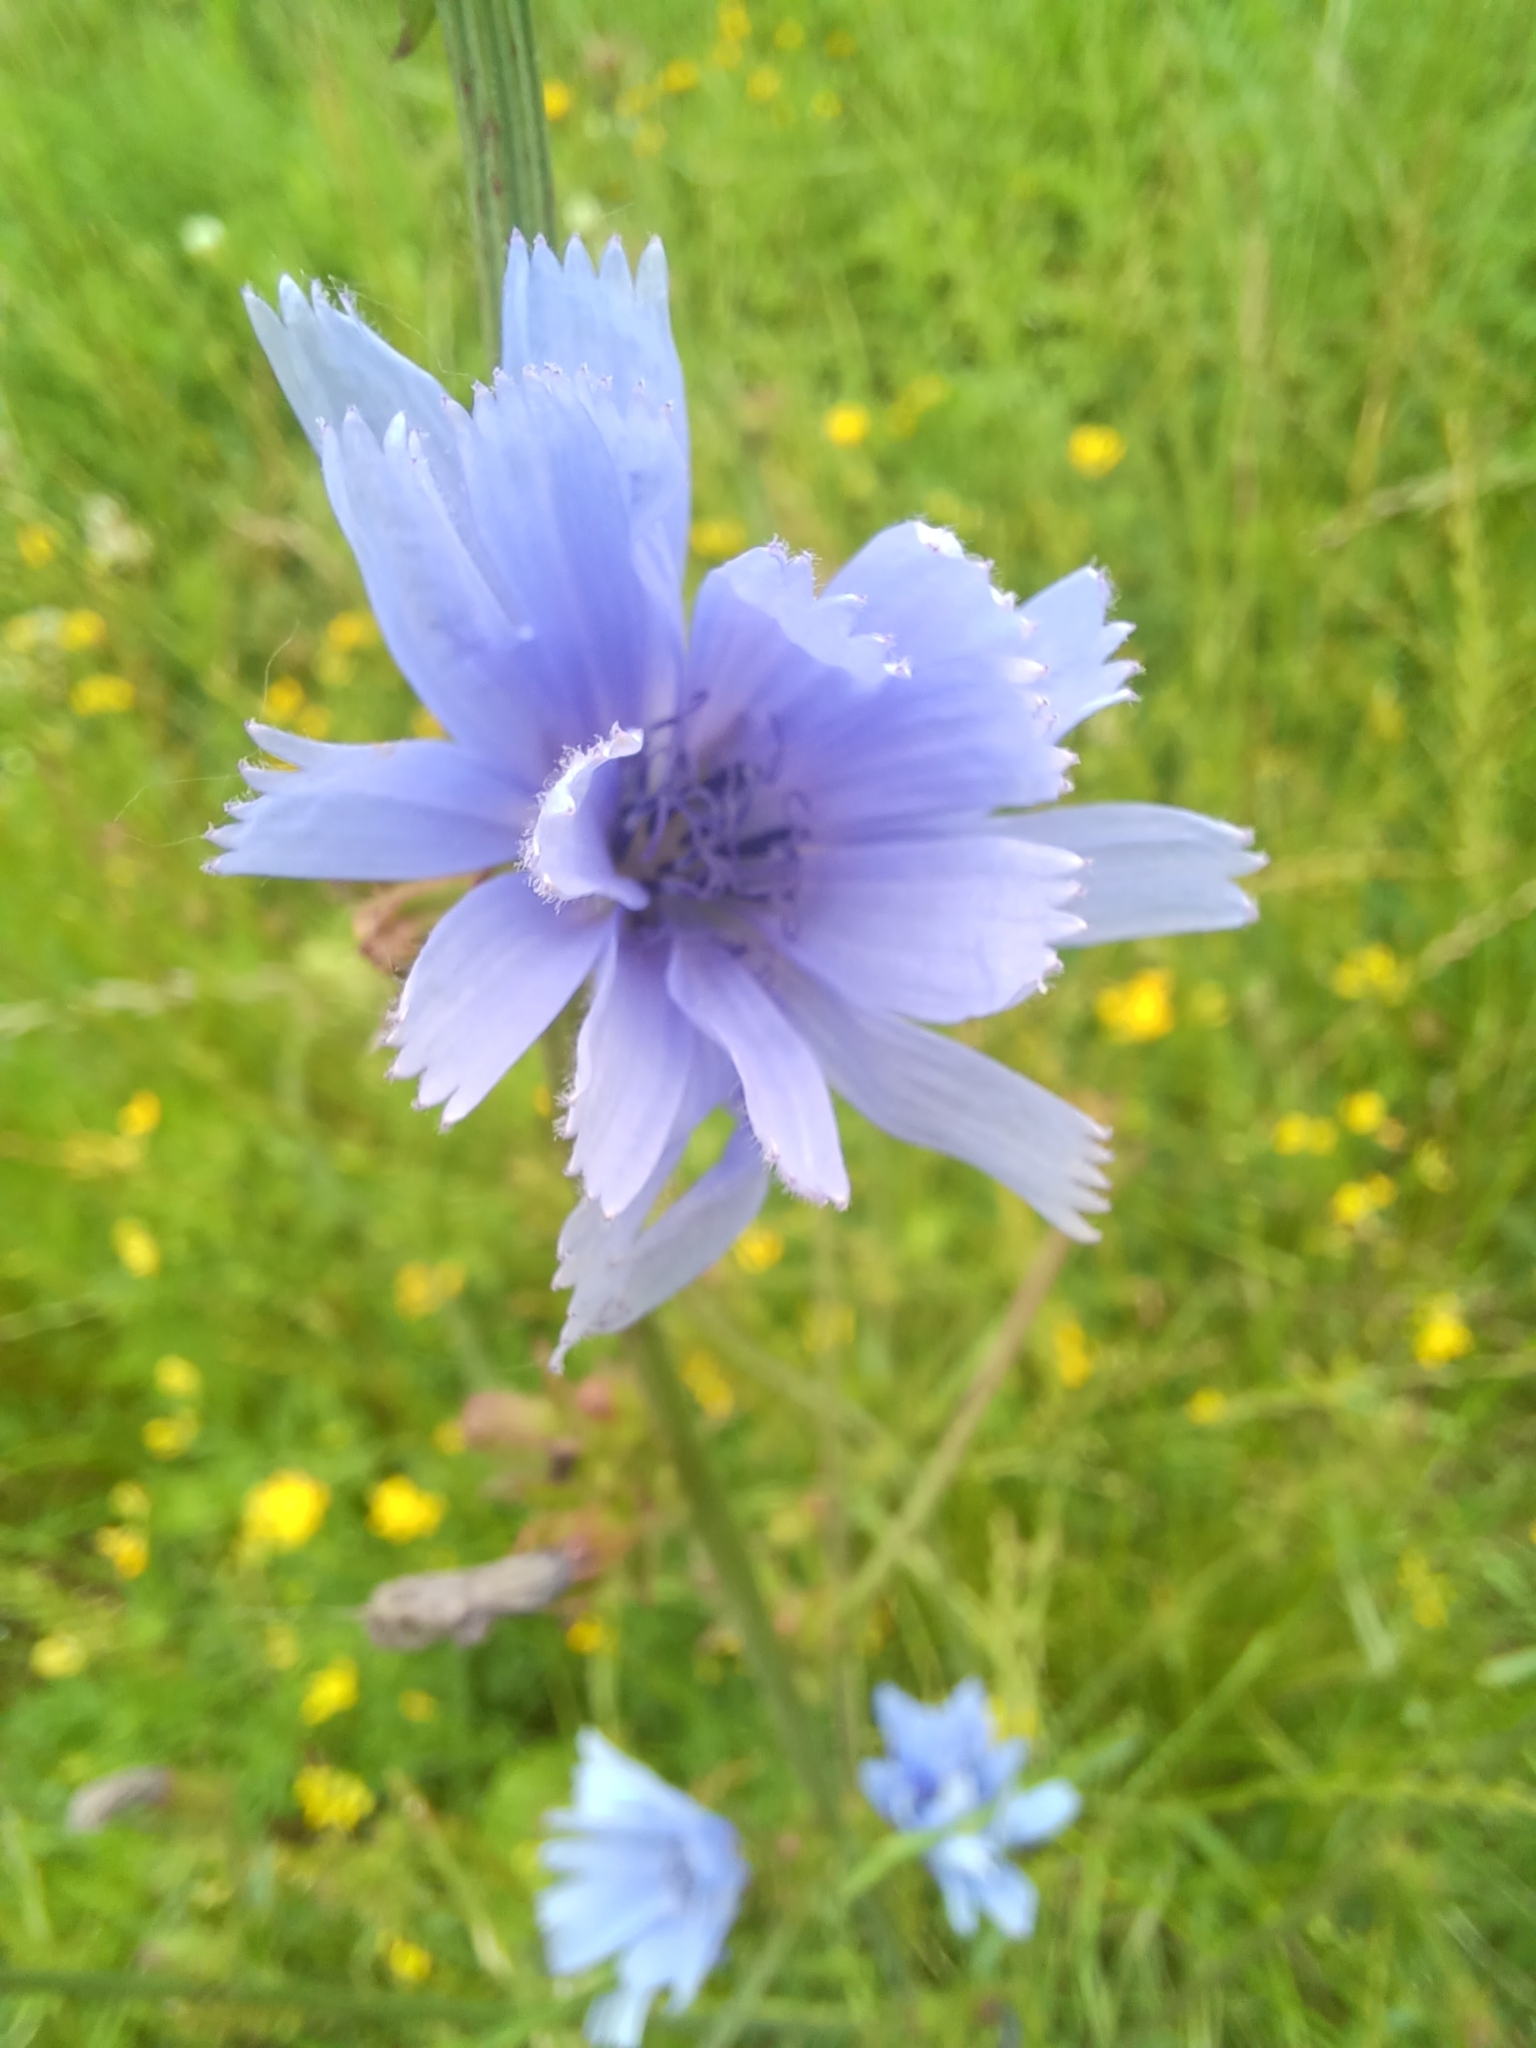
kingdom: Plantae
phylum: Tracheophyta
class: Magnoliopsida
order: Asterales
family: Asteraceae
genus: Cichorium
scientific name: Cichorium intybus
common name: Chicory
